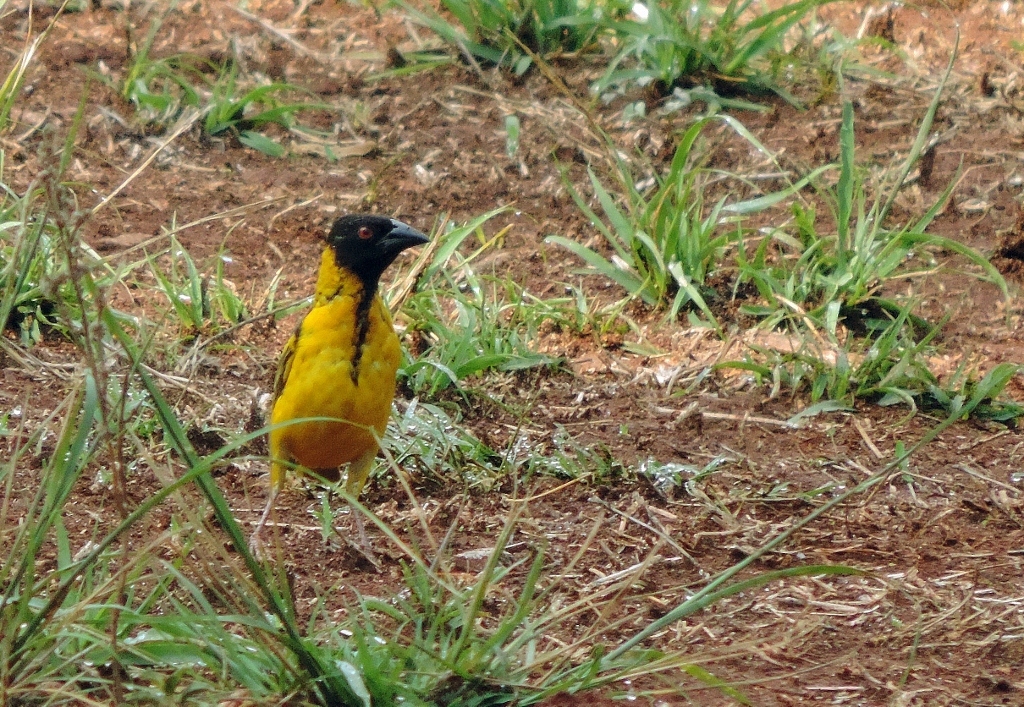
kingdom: Animalia
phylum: Chordata
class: Aves
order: Passeriformes
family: Ploceidae
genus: Ploceus
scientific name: Ploceus cucullatus
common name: Village weaver
